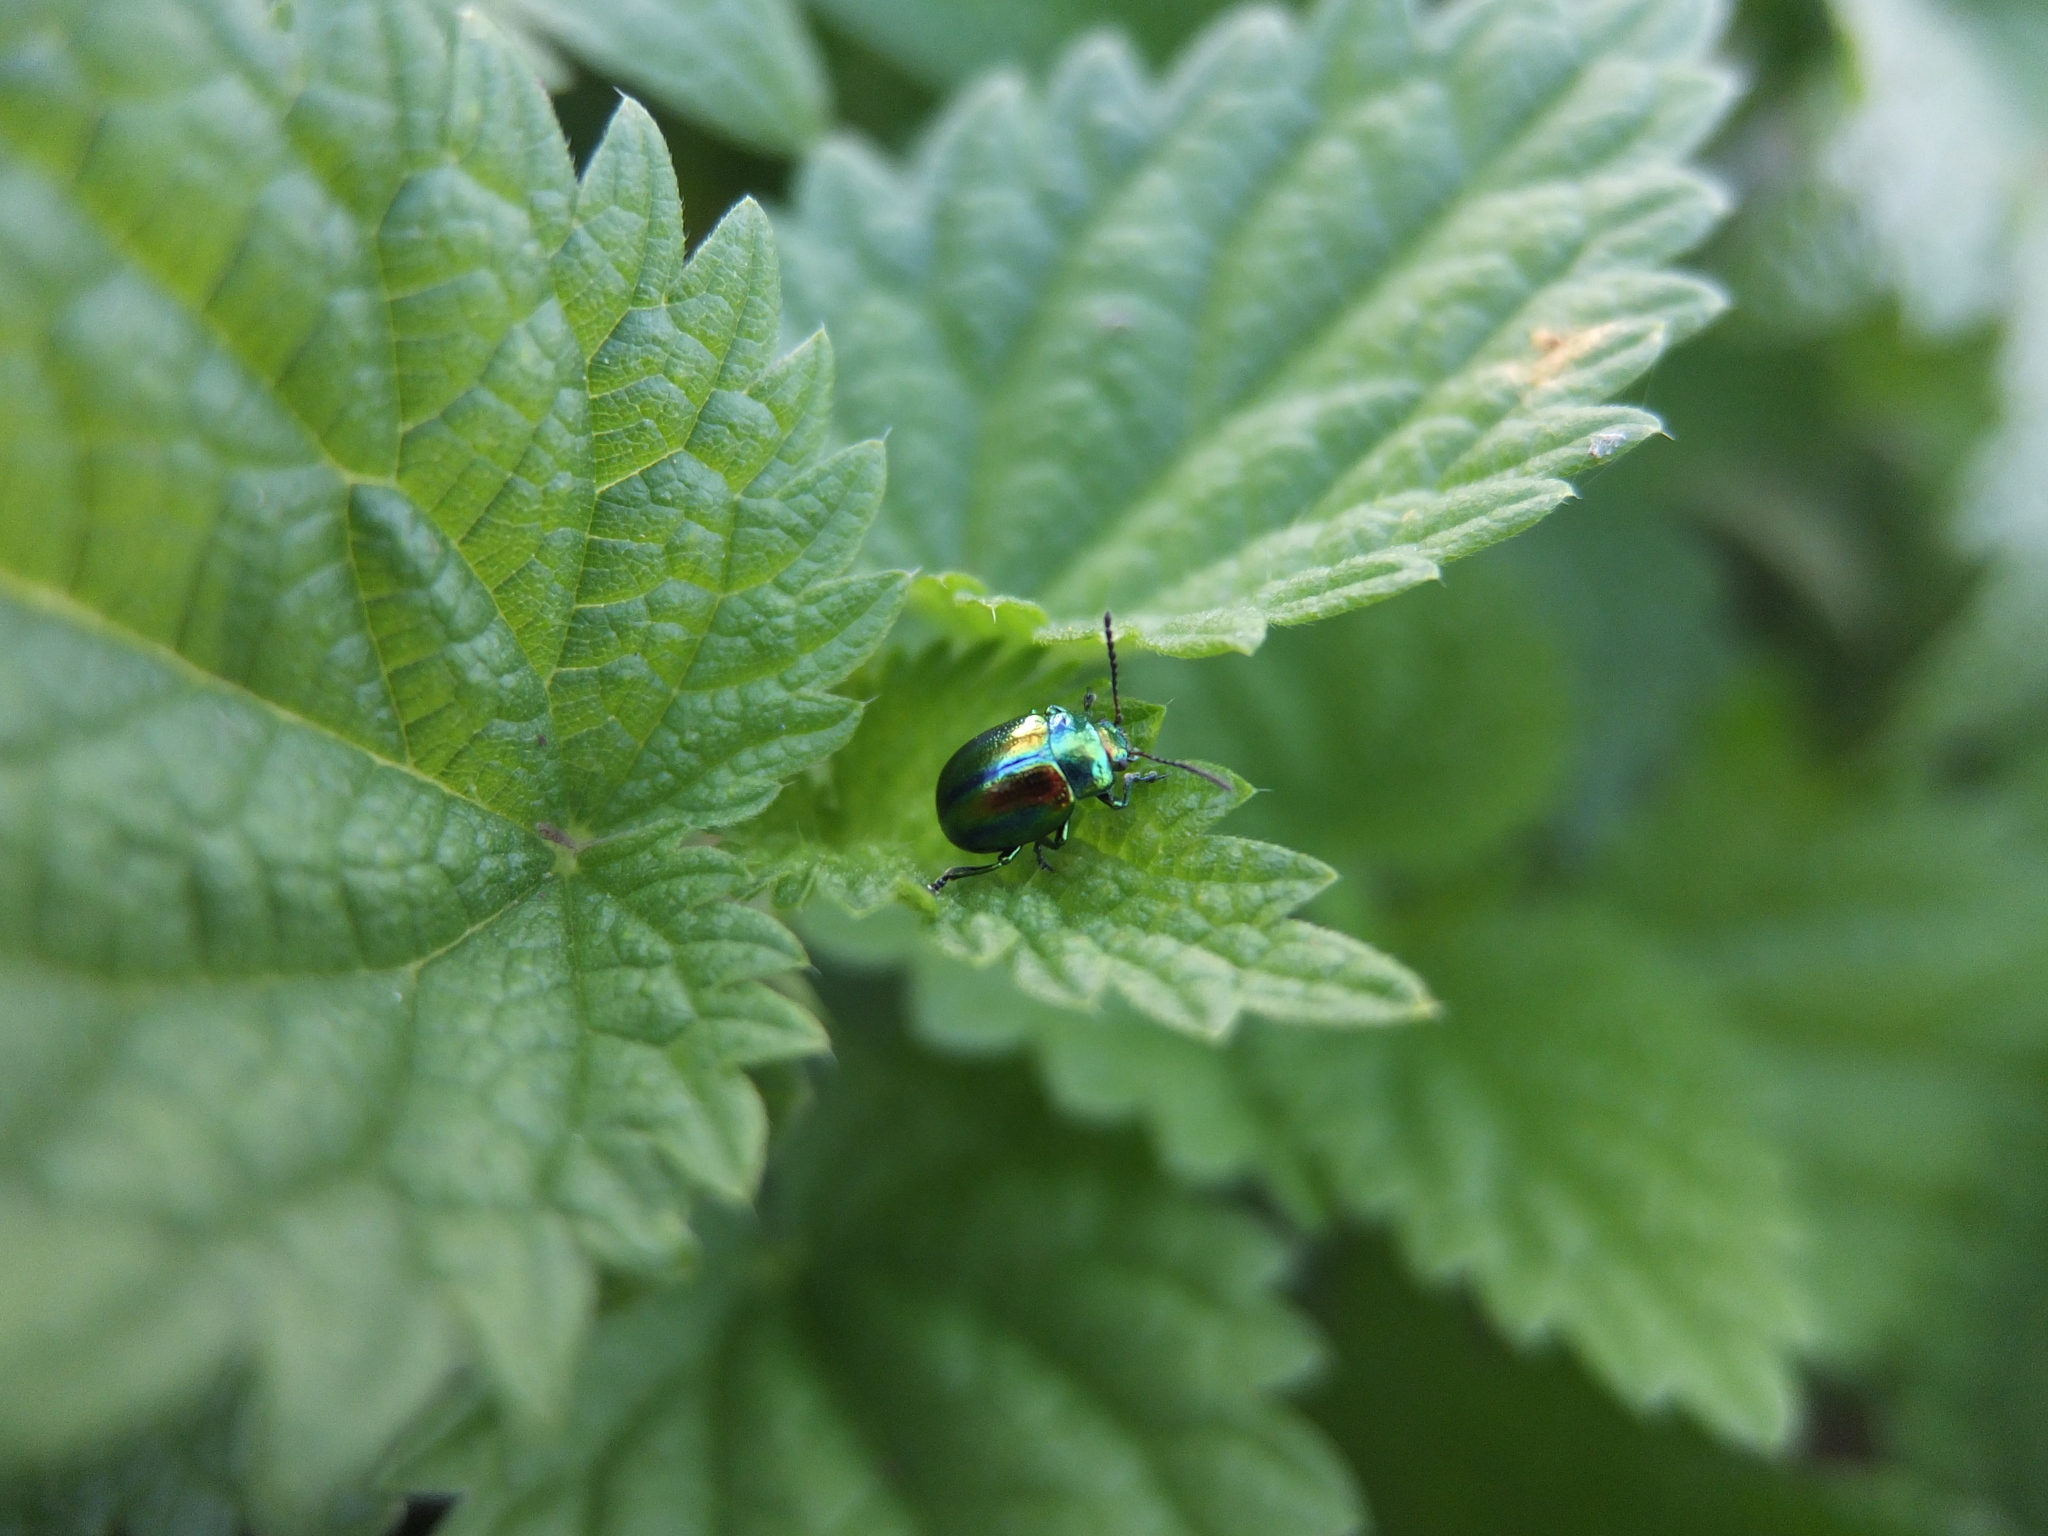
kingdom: Animalia
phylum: Arthropoda
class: Insecta
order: Coleoptera
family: Chrysomelidae
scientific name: Chrysomelidae
